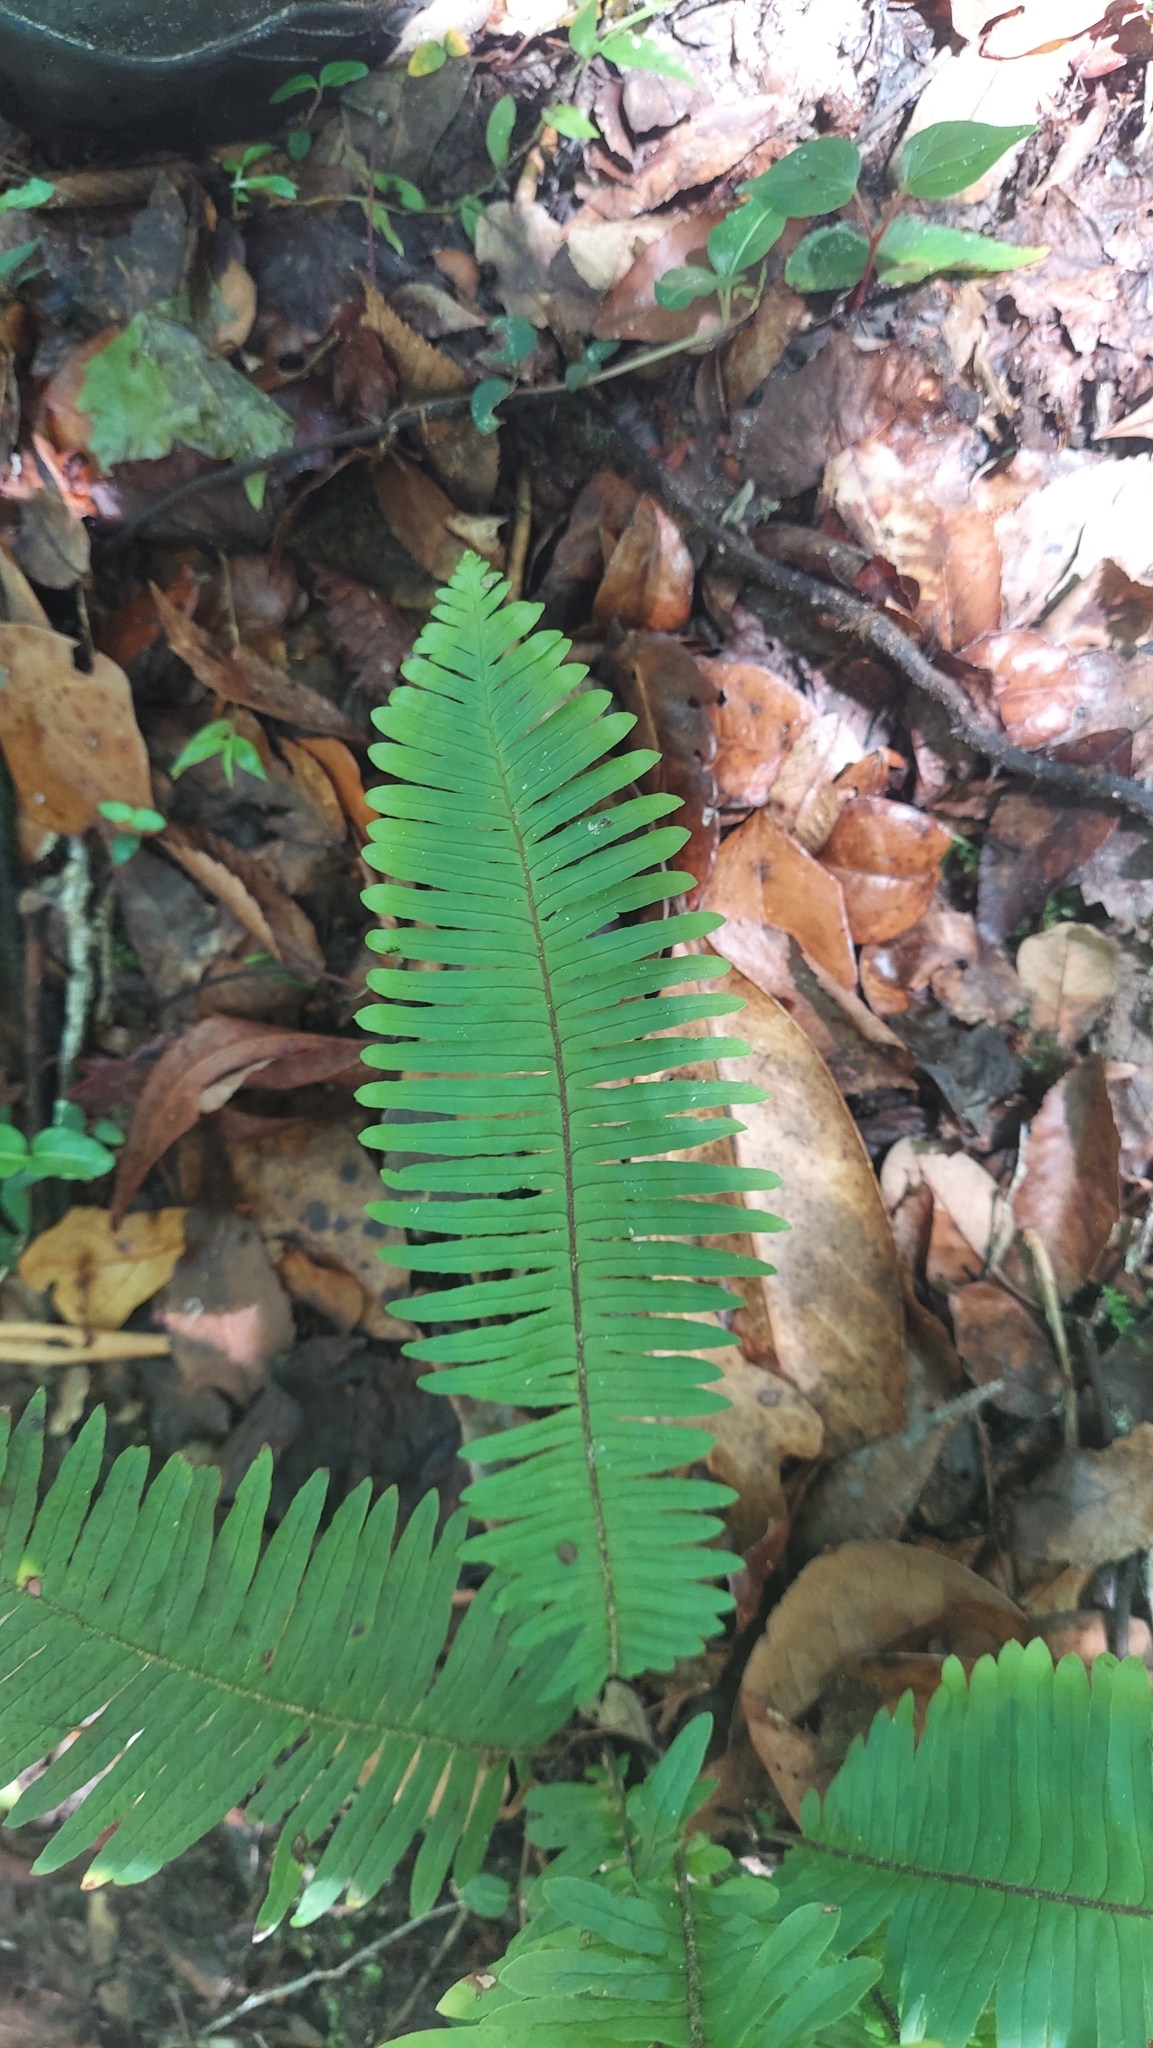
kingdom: Plantae
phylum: Tracheophyta
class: Polypodiopsida
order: Polypodiales
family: Polypodiaceae
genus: Pecluma
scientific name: Pecluma bourgeauana
